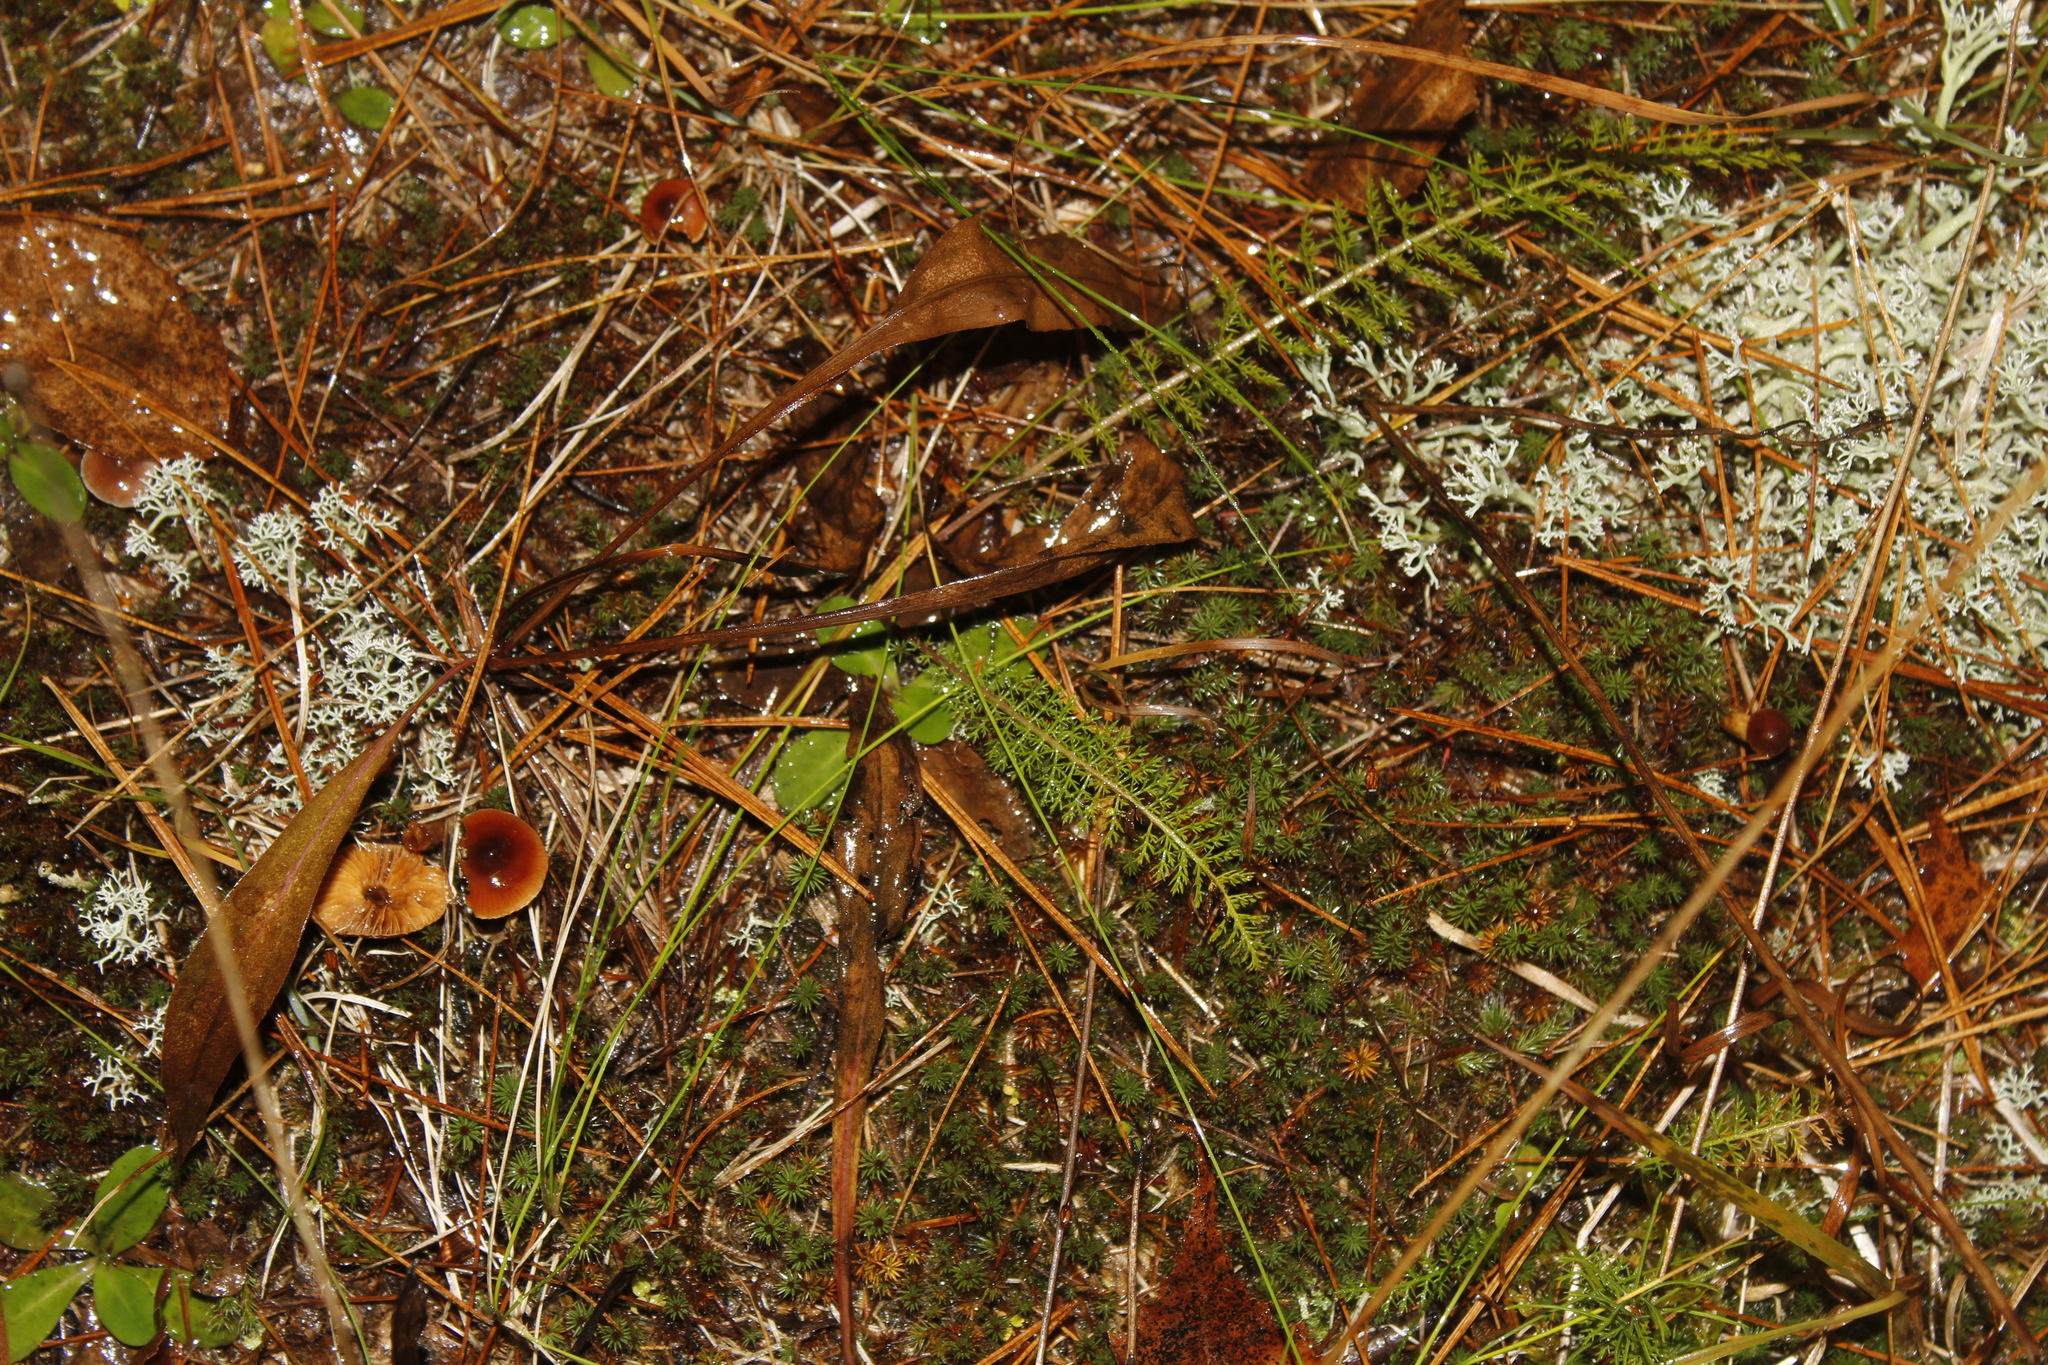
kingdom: Plantae
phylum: Tracheophyta
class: Magnoliopsida
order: Asterales
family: Asteraceae
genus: Achillea
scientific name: Achillea millefolium
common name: Yarrow
